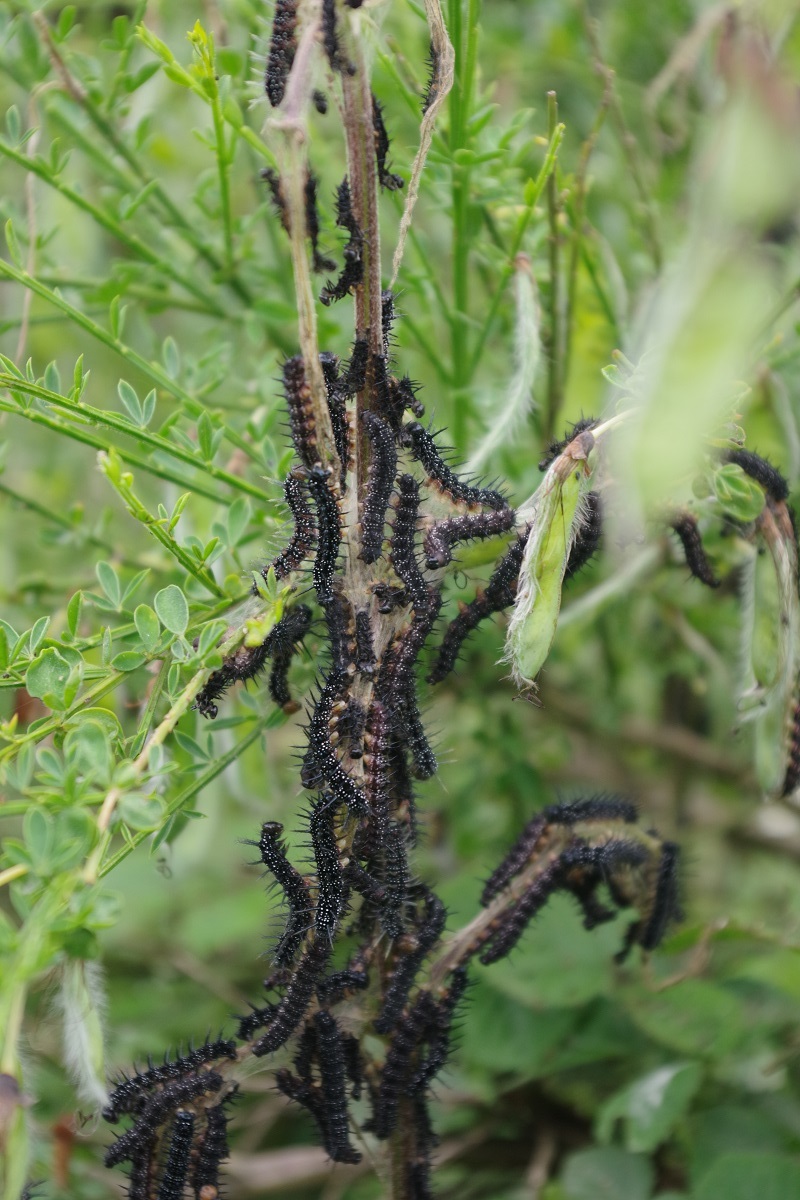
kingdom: Animalia
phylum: Arthropoda
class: Insecta
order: Lepidoptera
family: Nymphalidae
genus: Aglais
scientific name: Aglais io
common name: Peacock
